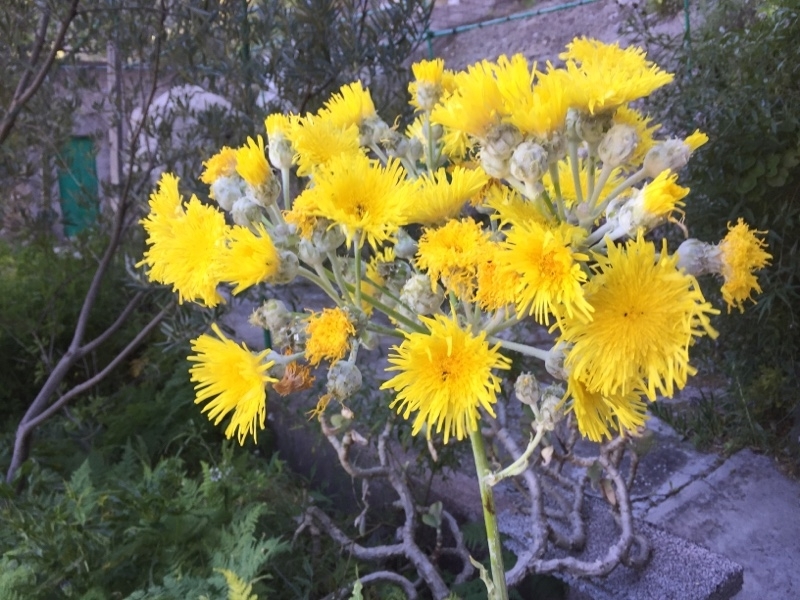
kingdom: Plantae
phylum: Tracheophyta
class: Magnoliopsida
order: Asterales
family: Asteraceae
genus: Sonchus
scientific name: Sonchus acaulis
